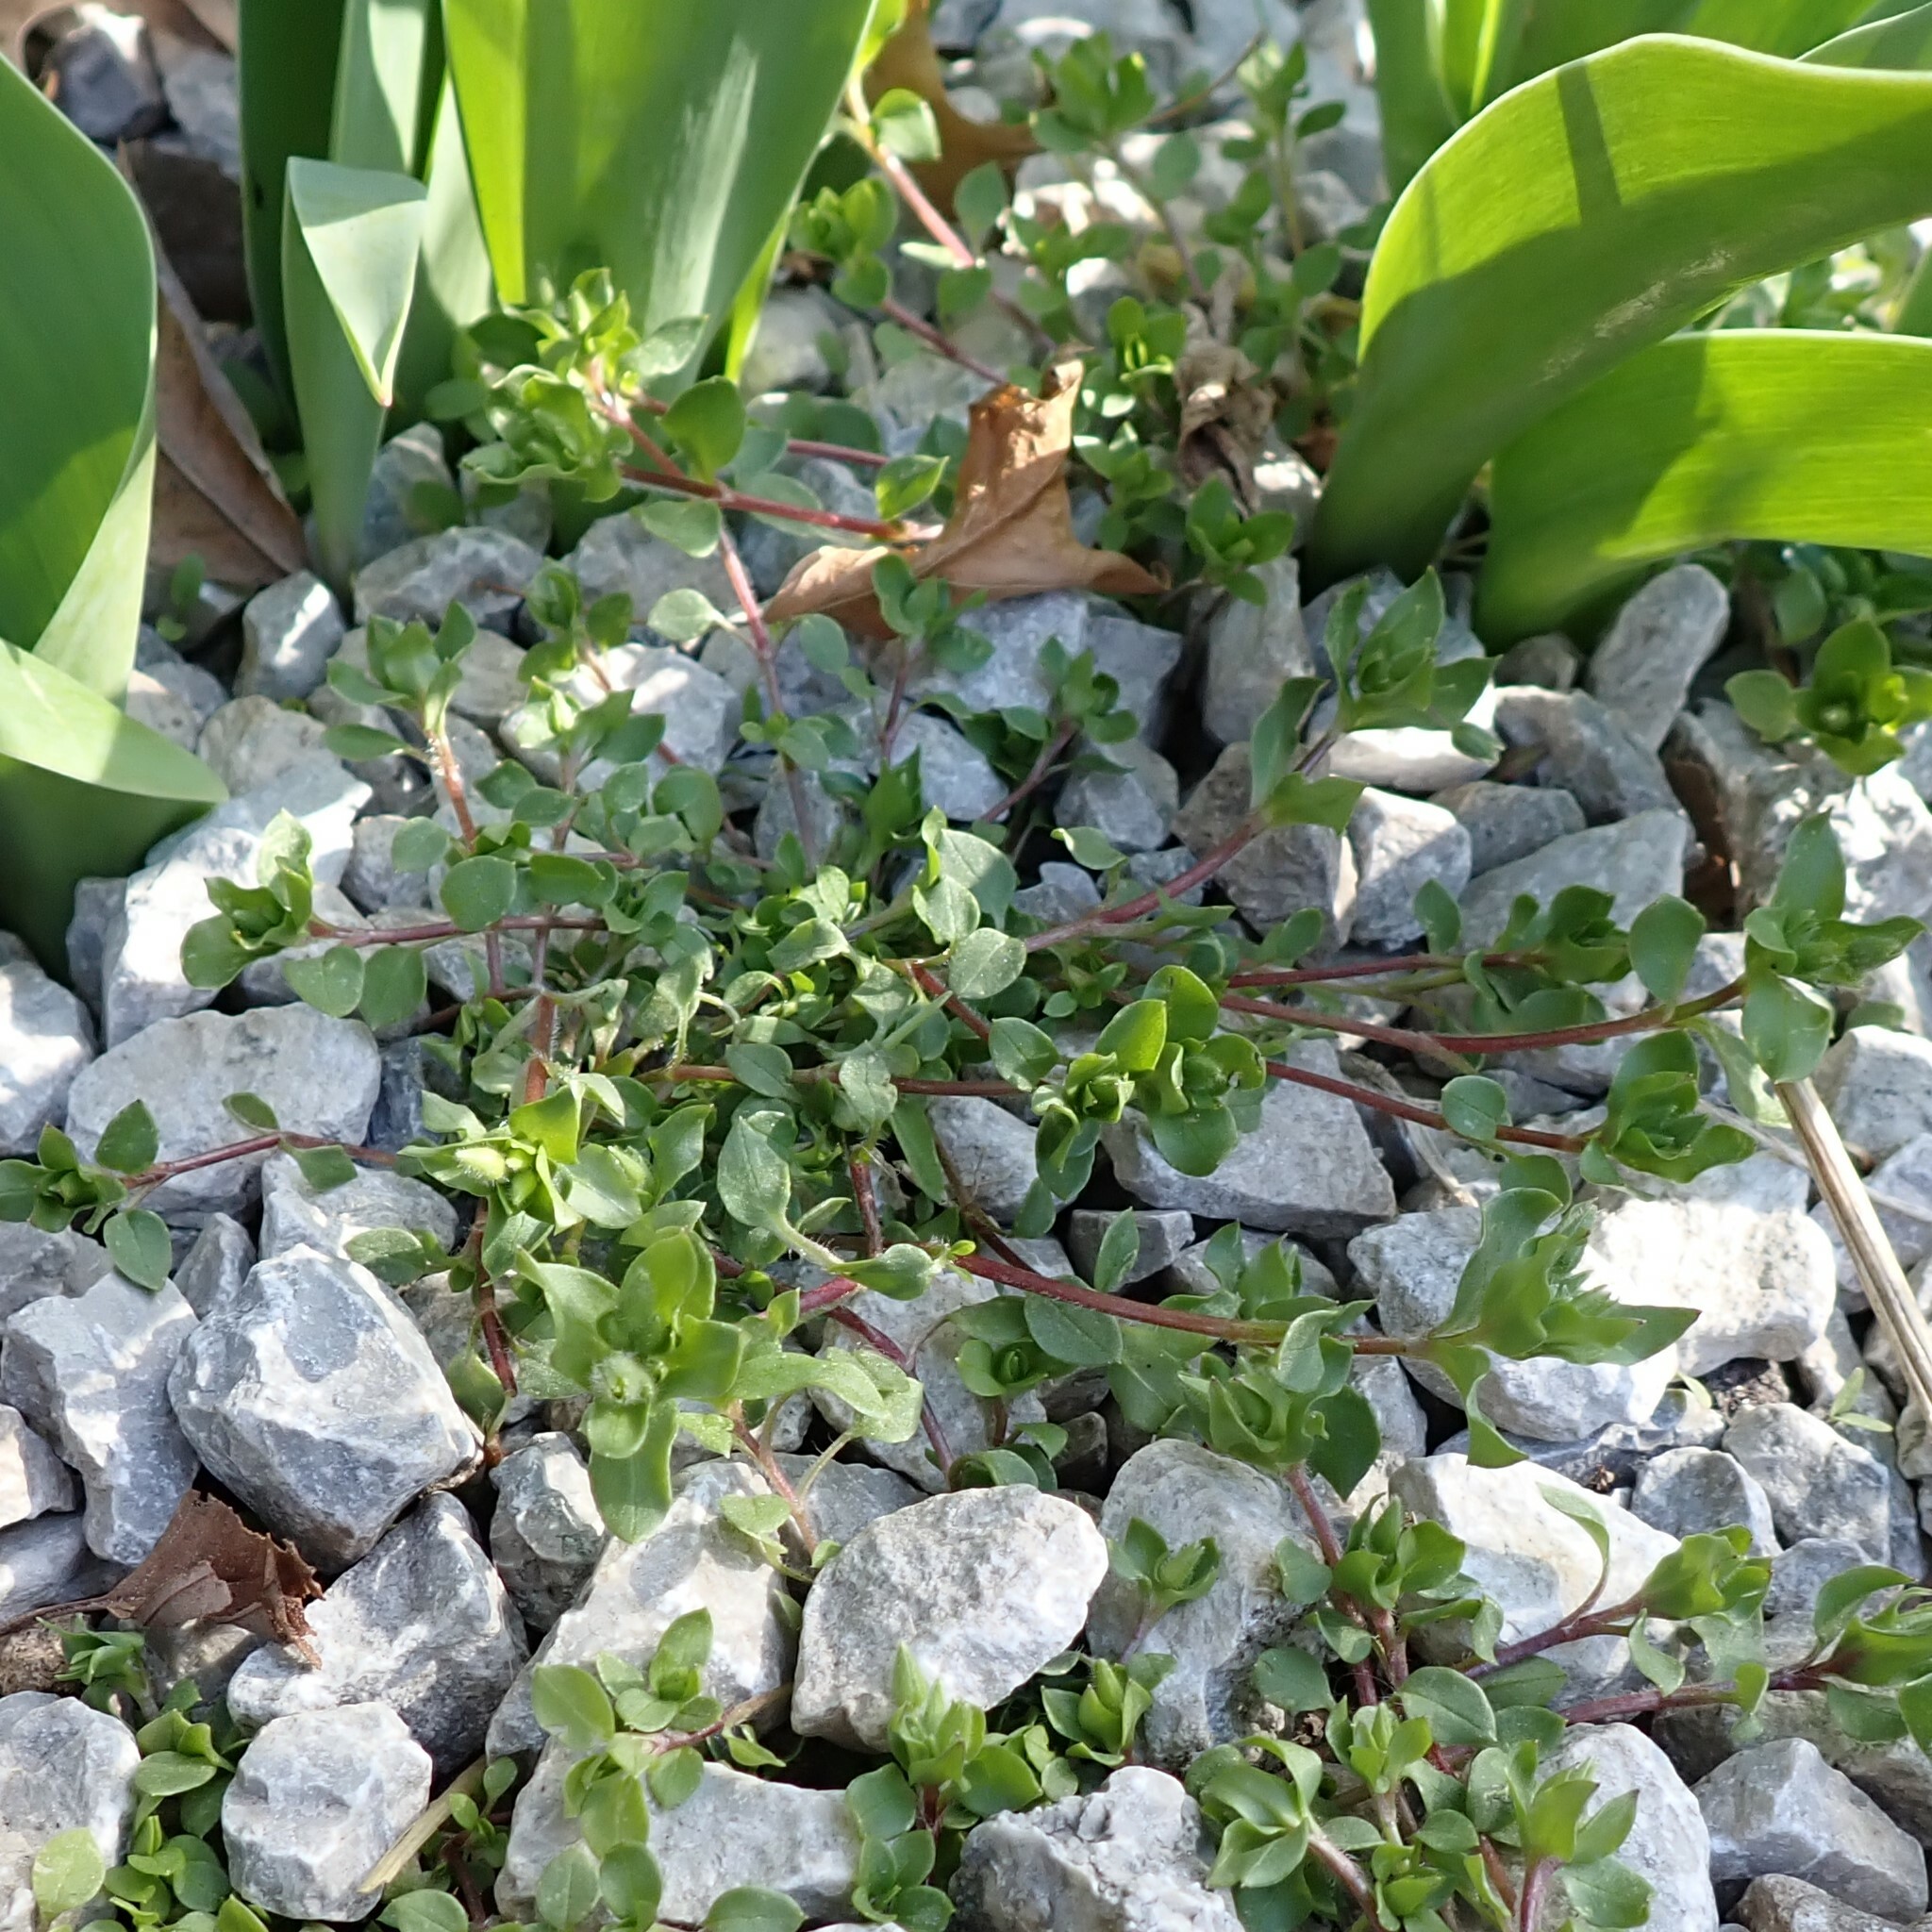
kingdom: Plantae
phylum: Tracheophyta
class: Magnoliopsida
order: Caryophyllales
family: Caryophyllaceae
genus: Stellaria
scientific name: Stellaria apetala
